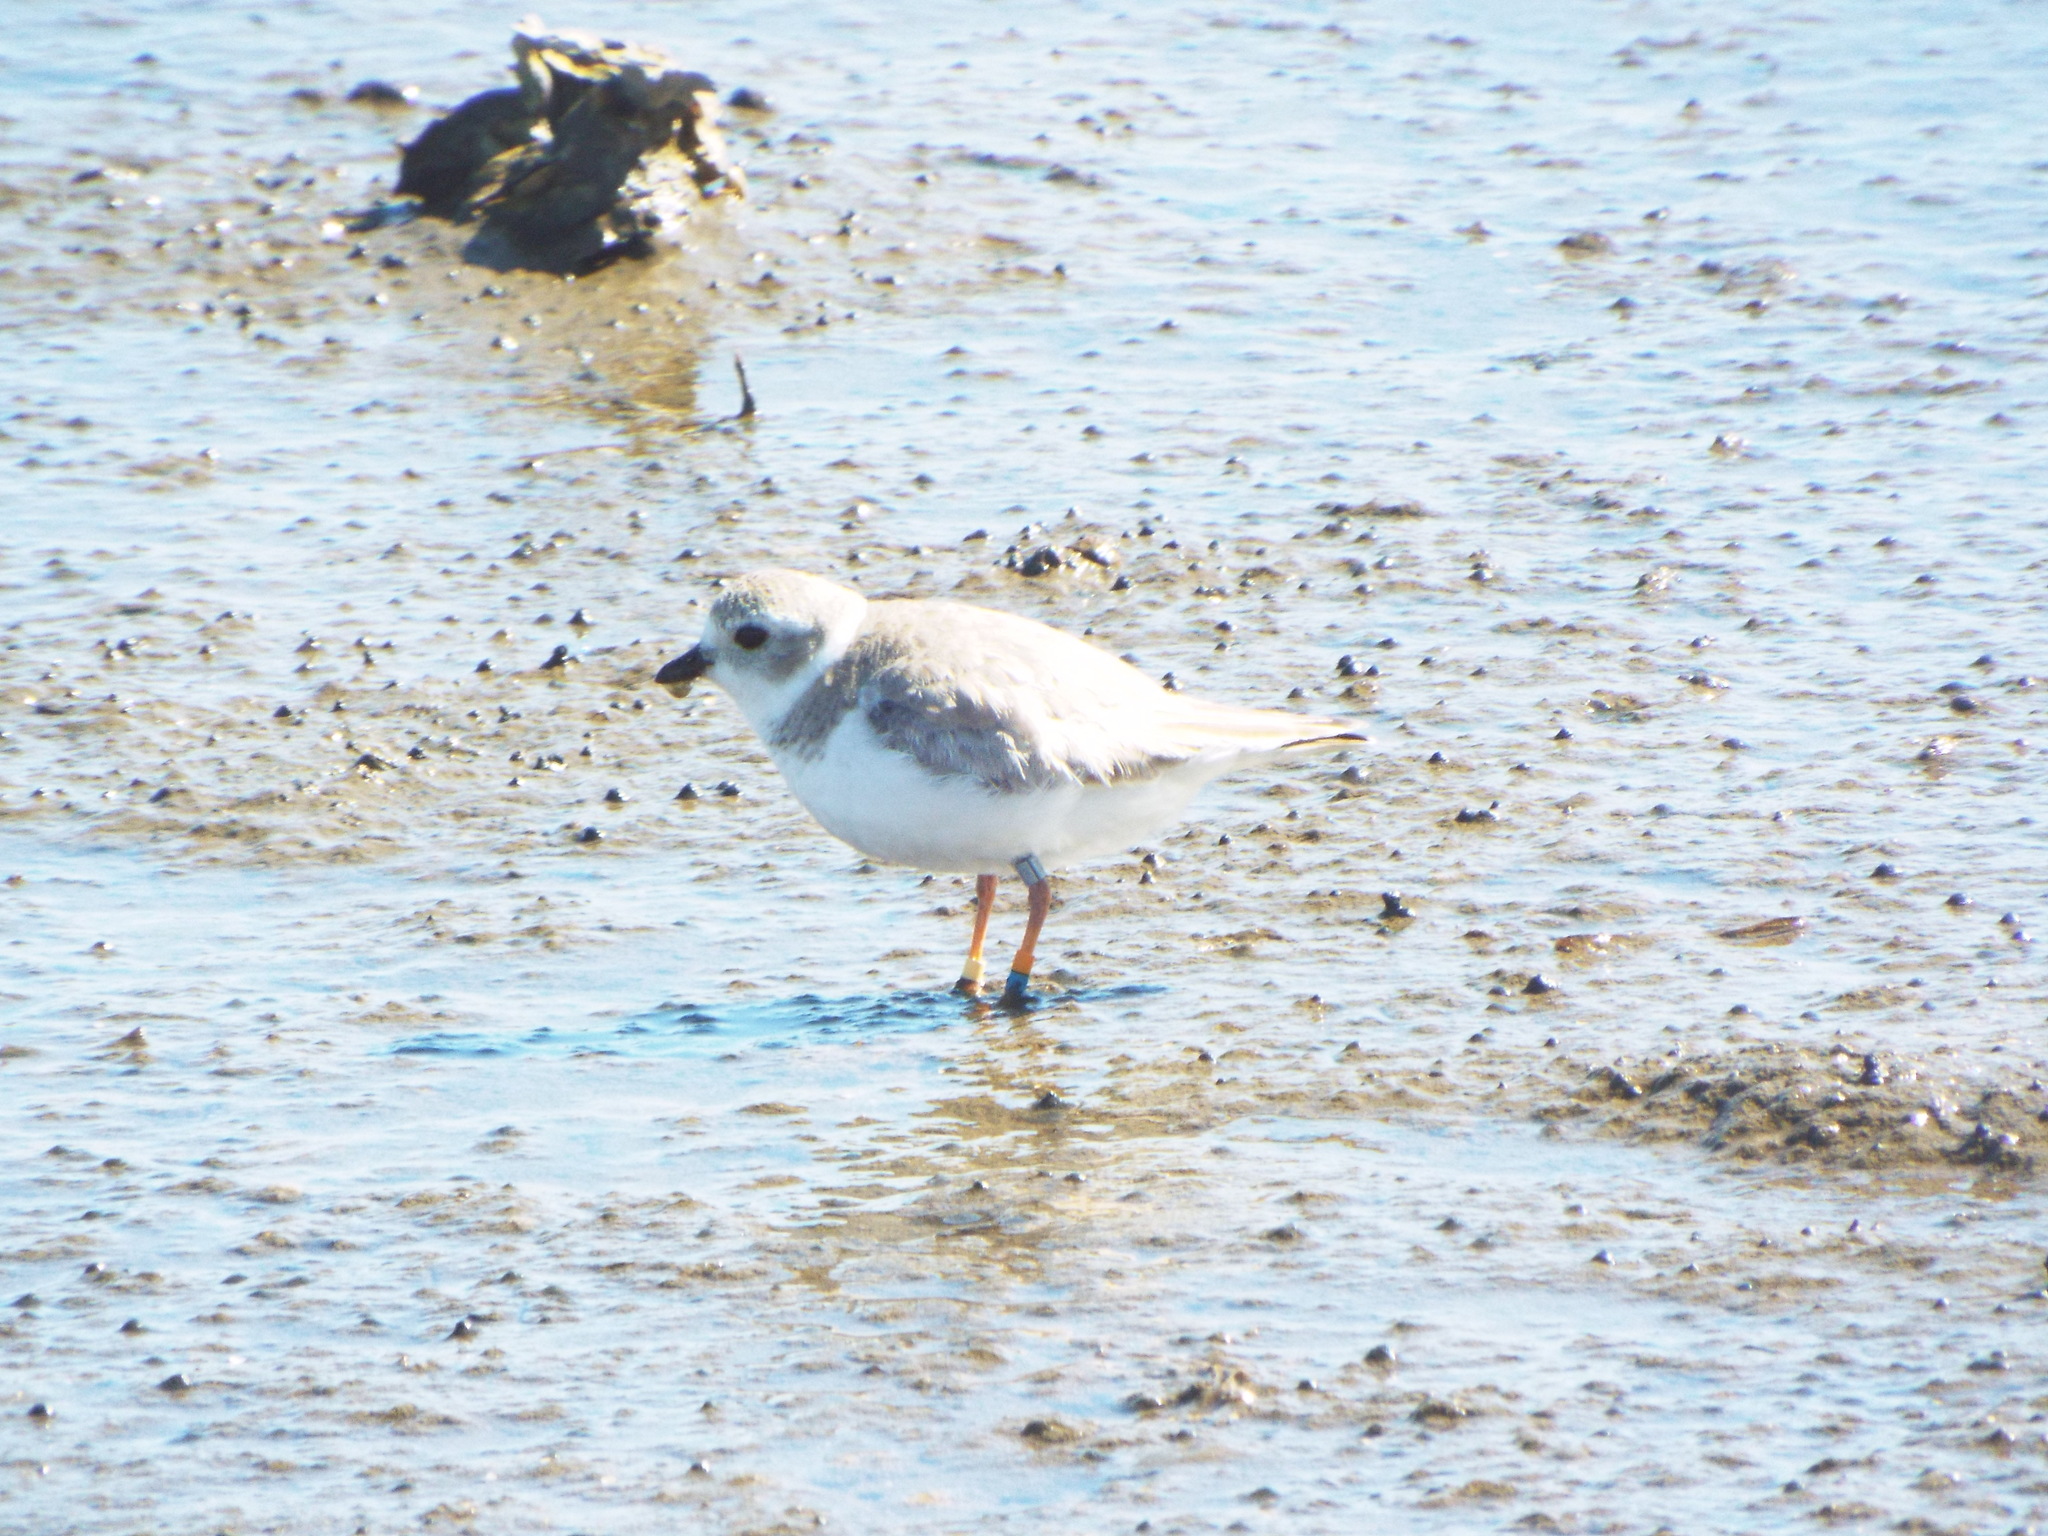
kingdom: Animalia
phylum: Chordata
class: Aves
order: Charadriiformes
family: Charadriidae
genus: Charadrius
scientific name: Charadrius melodus
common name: Piping plover
